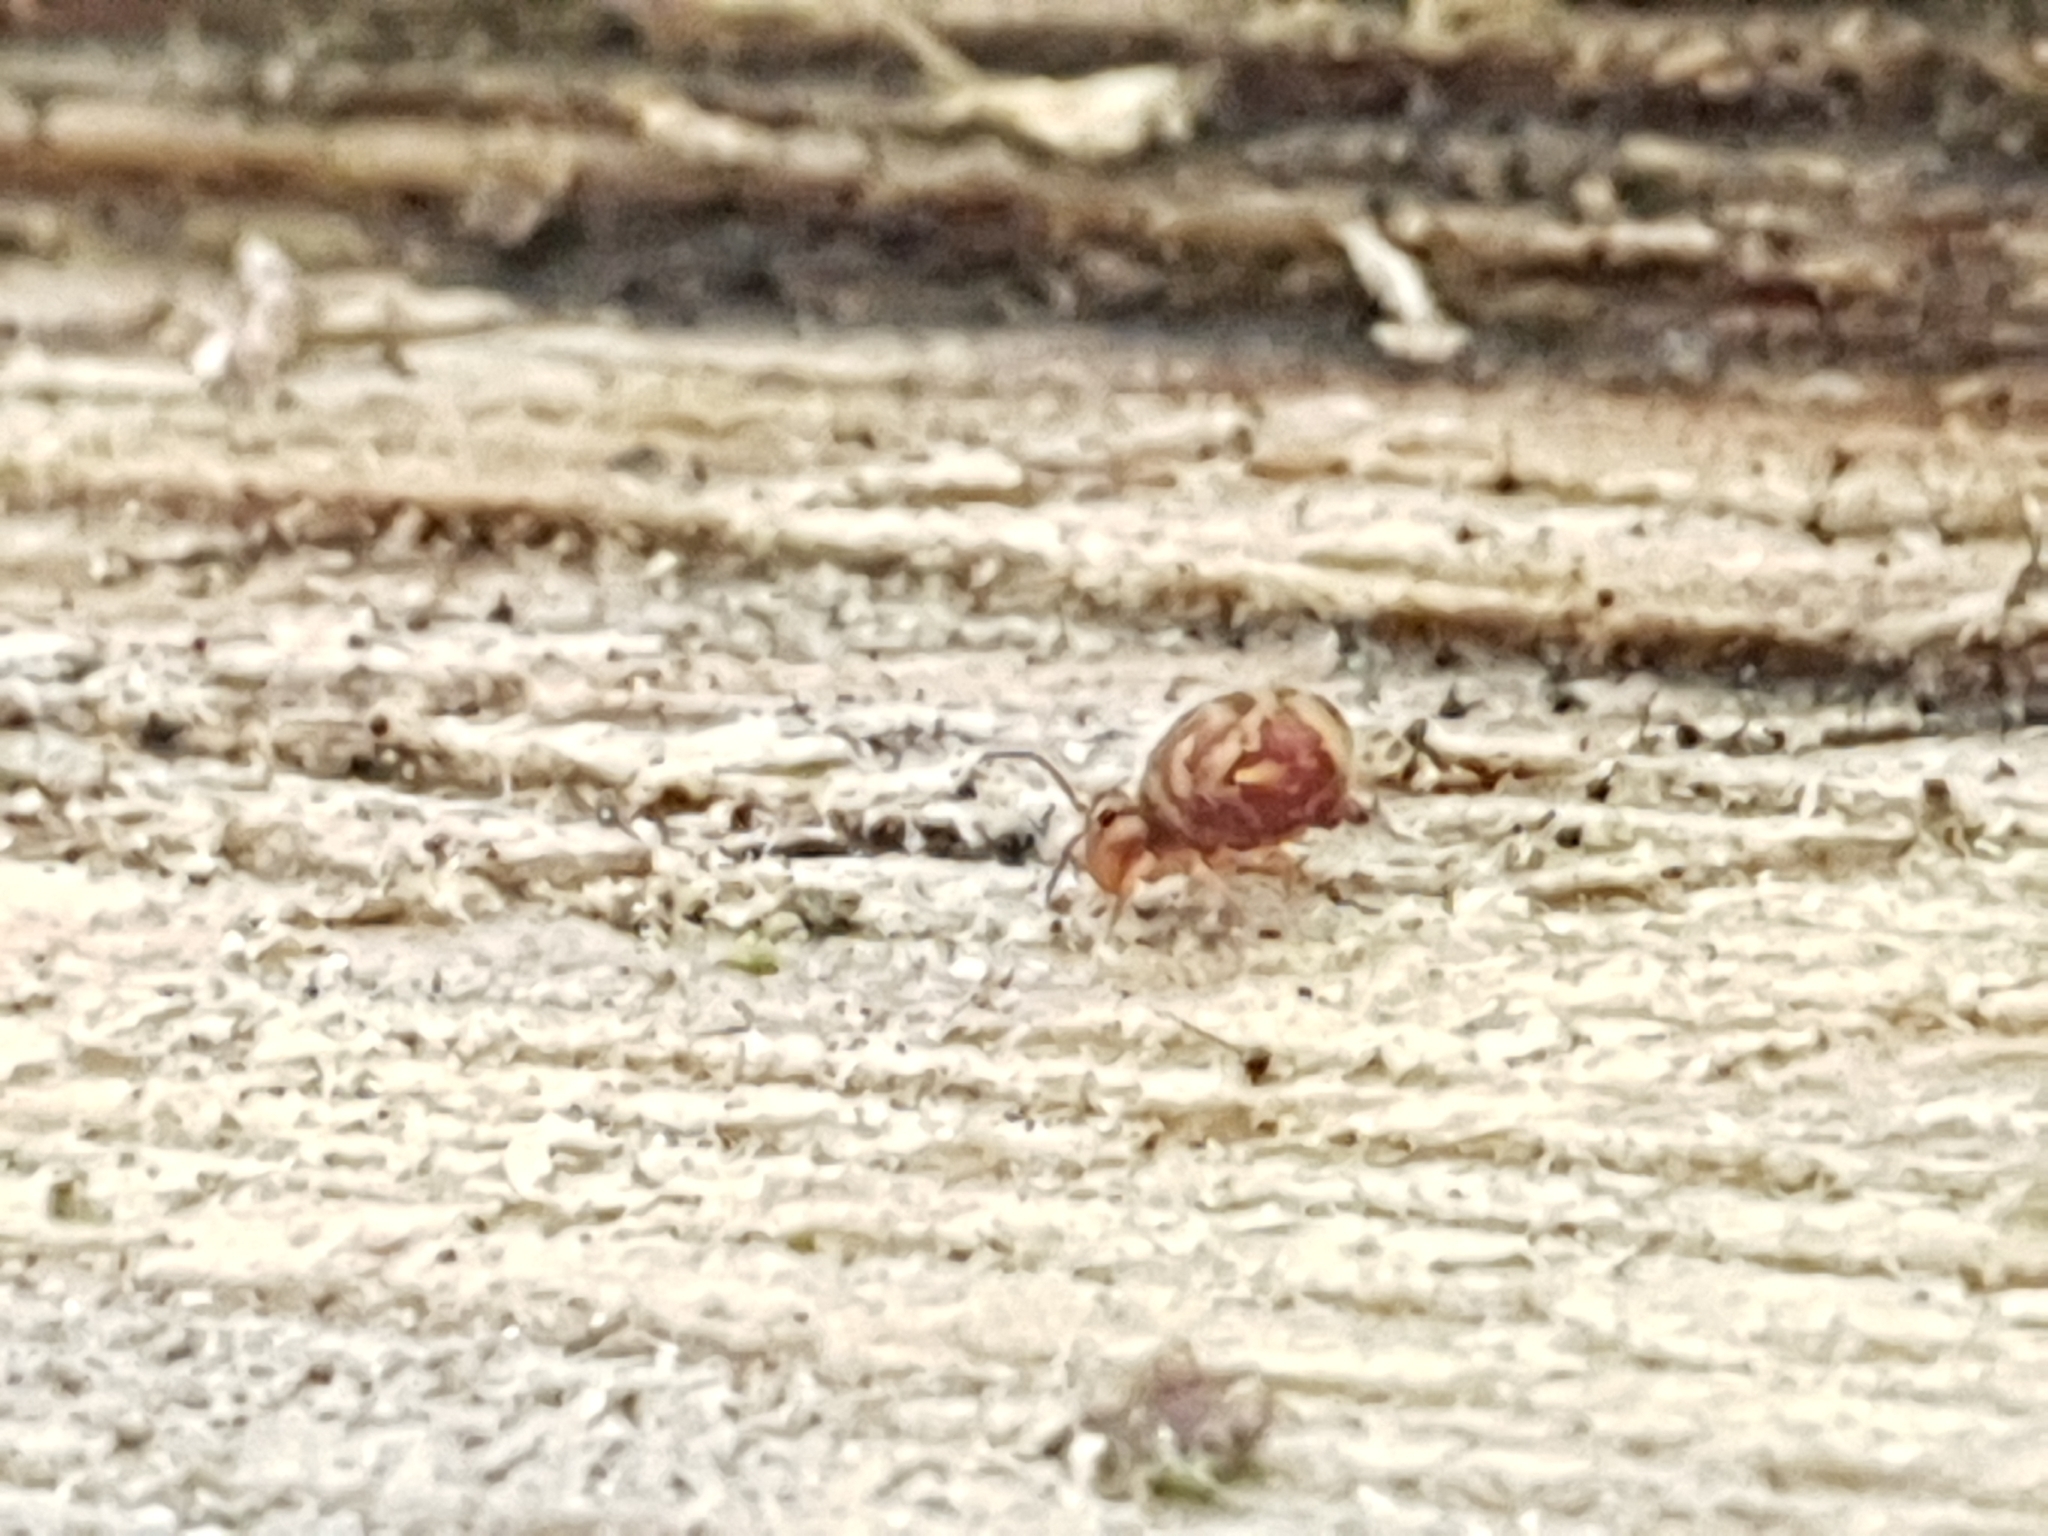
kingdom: Animalia
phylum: Arthropoda
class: Collembola
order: Symphypleona
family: Dicyrtomidae
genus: Dicyrtomina
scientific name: Dicyrtomina ornata
